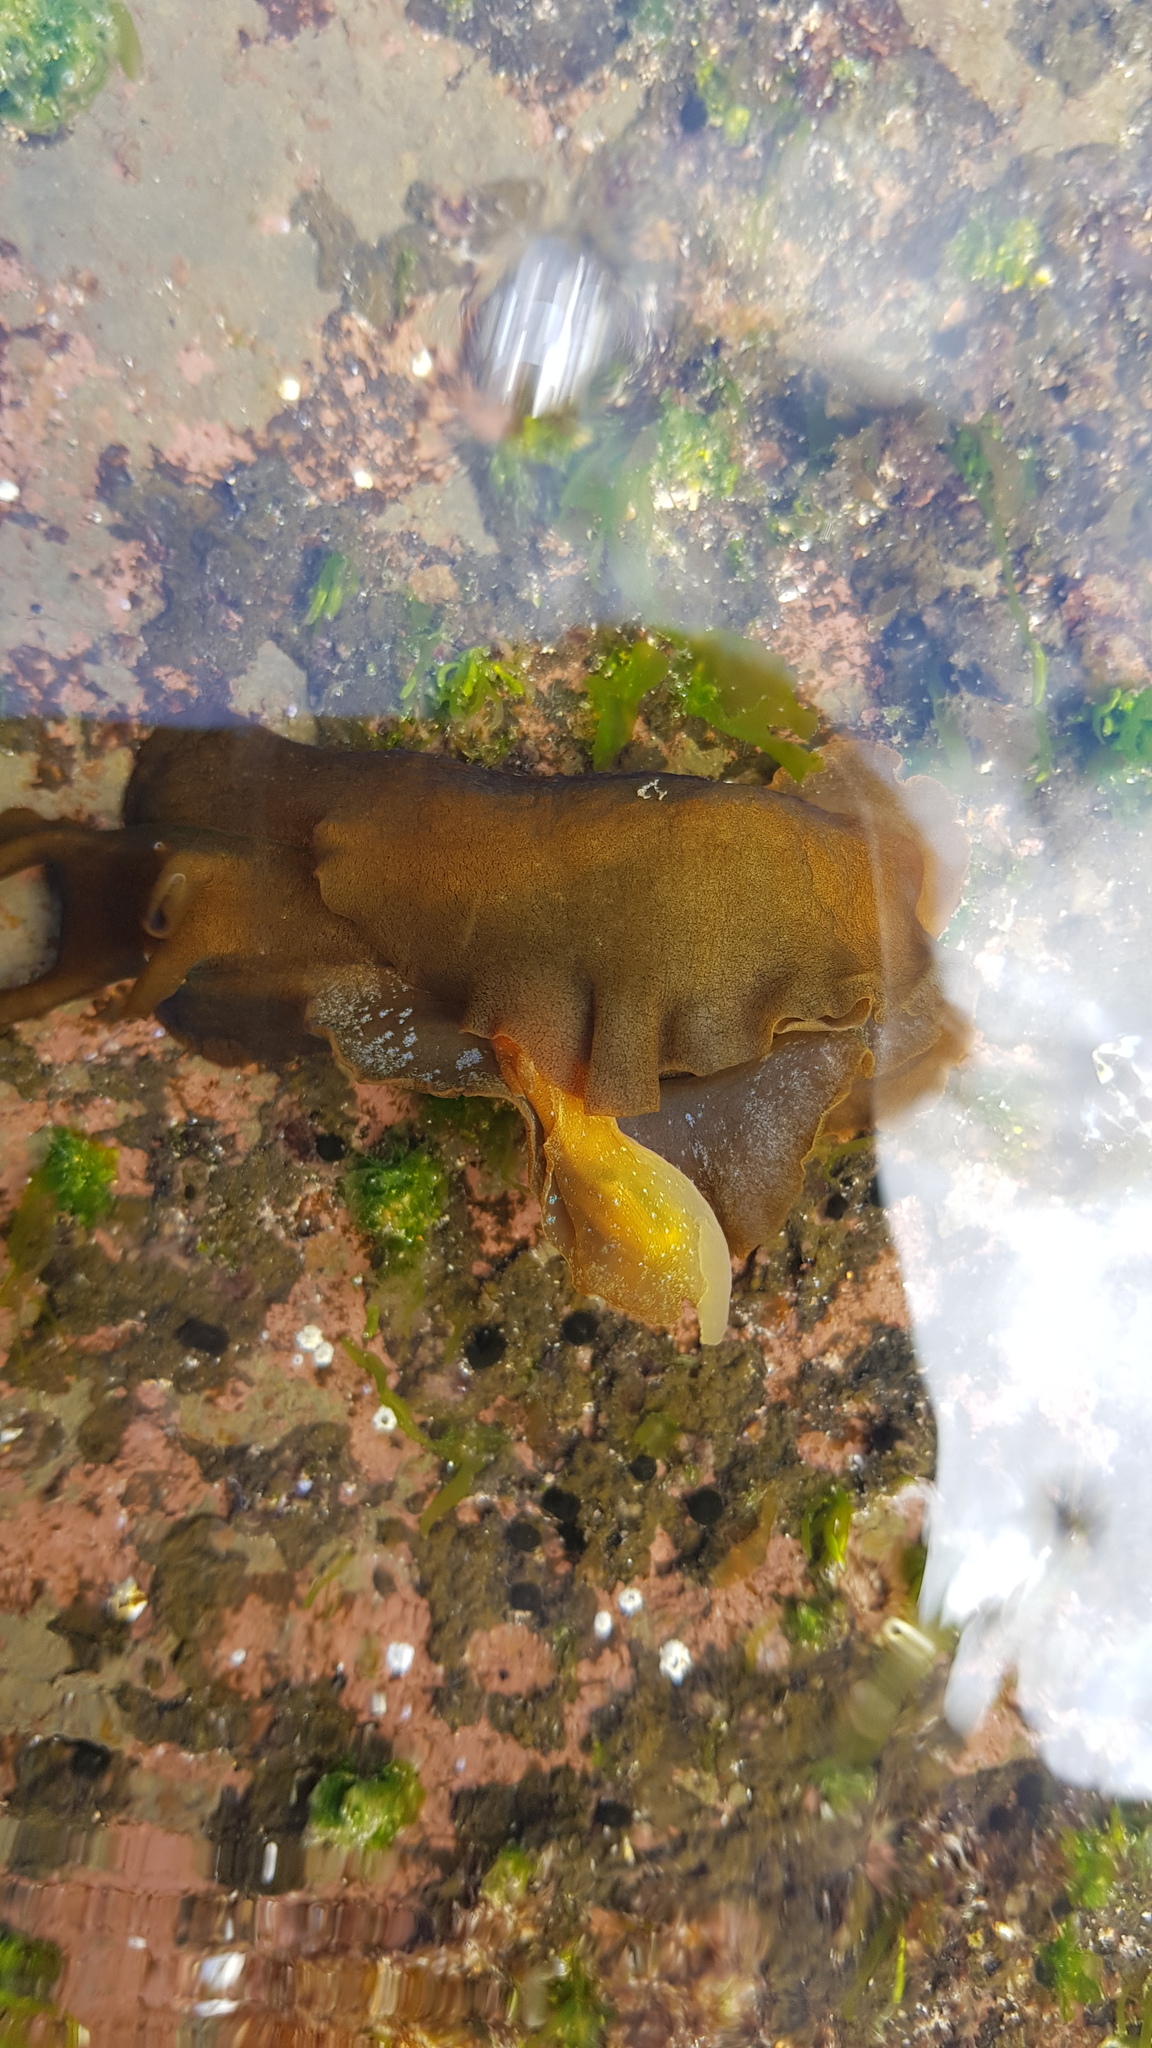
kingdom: Animalia
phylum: Mollusca
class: Gastropoda
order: Aplysiida
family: Aplysiidae
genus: Aplysia
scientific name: Aplysia juliana
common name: Walking sea hare
